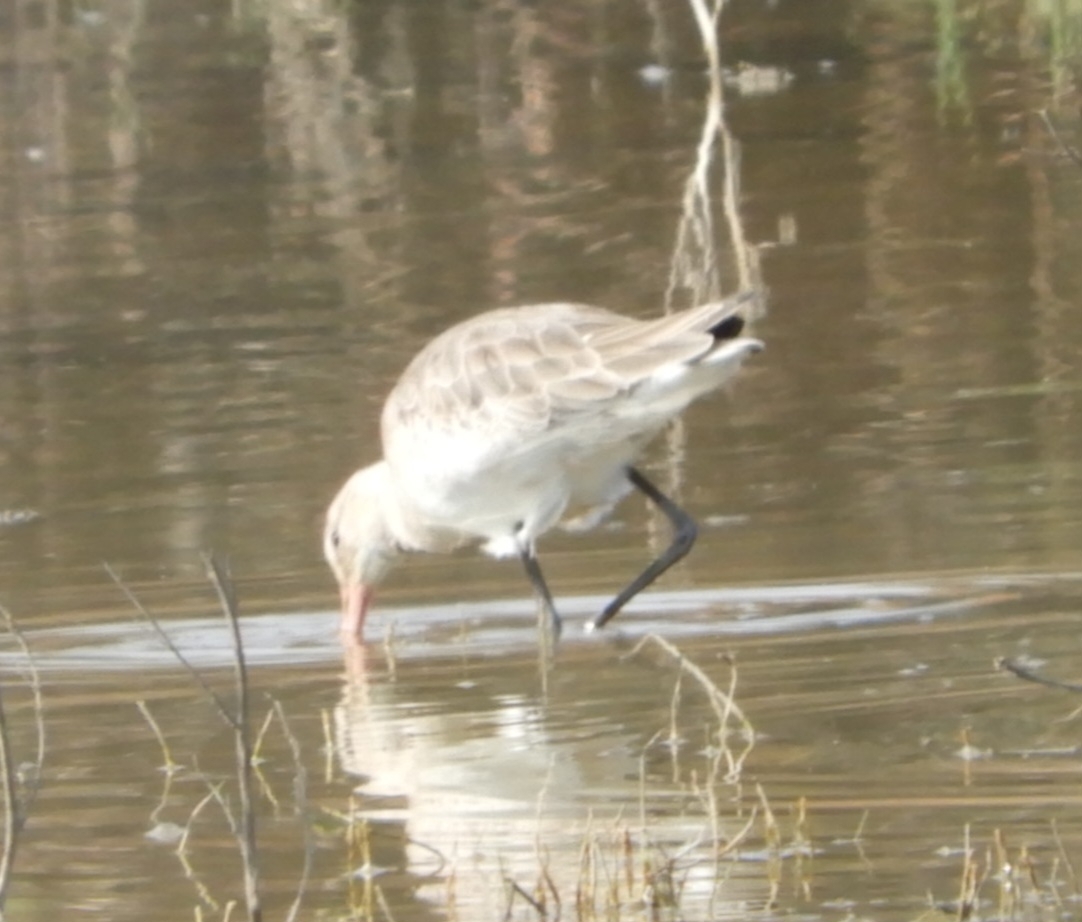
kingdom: Animalia
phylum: Chordata
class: Aves
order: Charadriiformes
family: Scolopacidae
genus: Limosa
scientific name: Limosa limosa
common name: Black-tailed godwit
